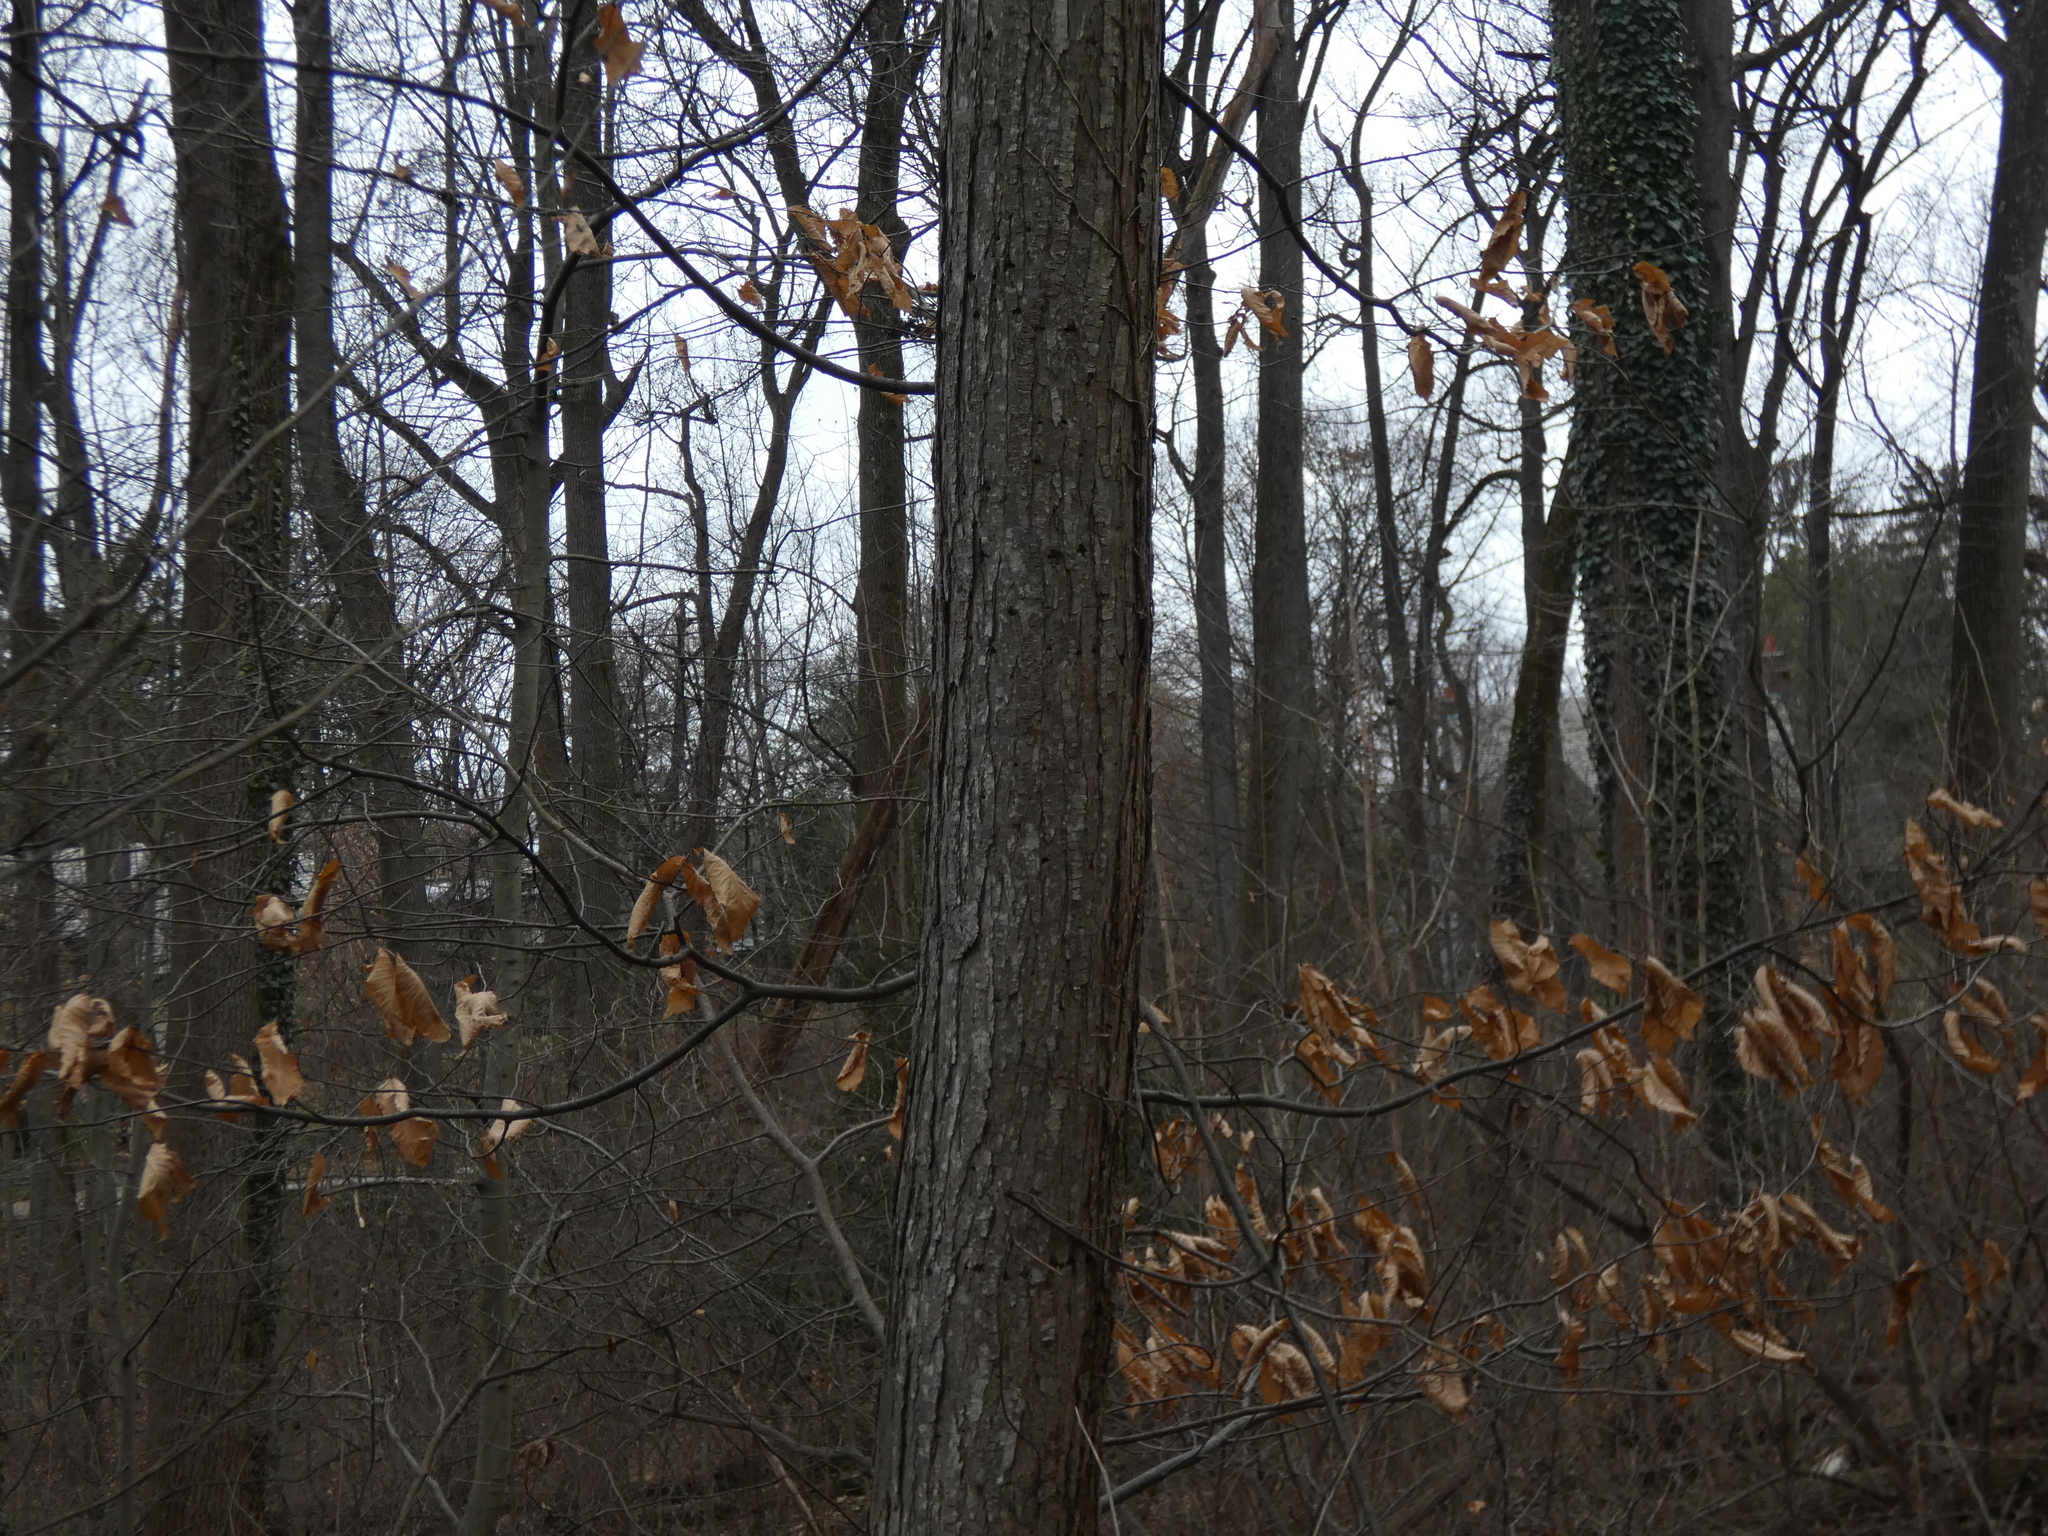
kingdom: Plantae
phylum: Tracheophyta
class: Magnoliopsida
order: Fagales
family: Fagaceae
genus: Castanea
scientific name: Castanea dentata
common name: American chestnut
